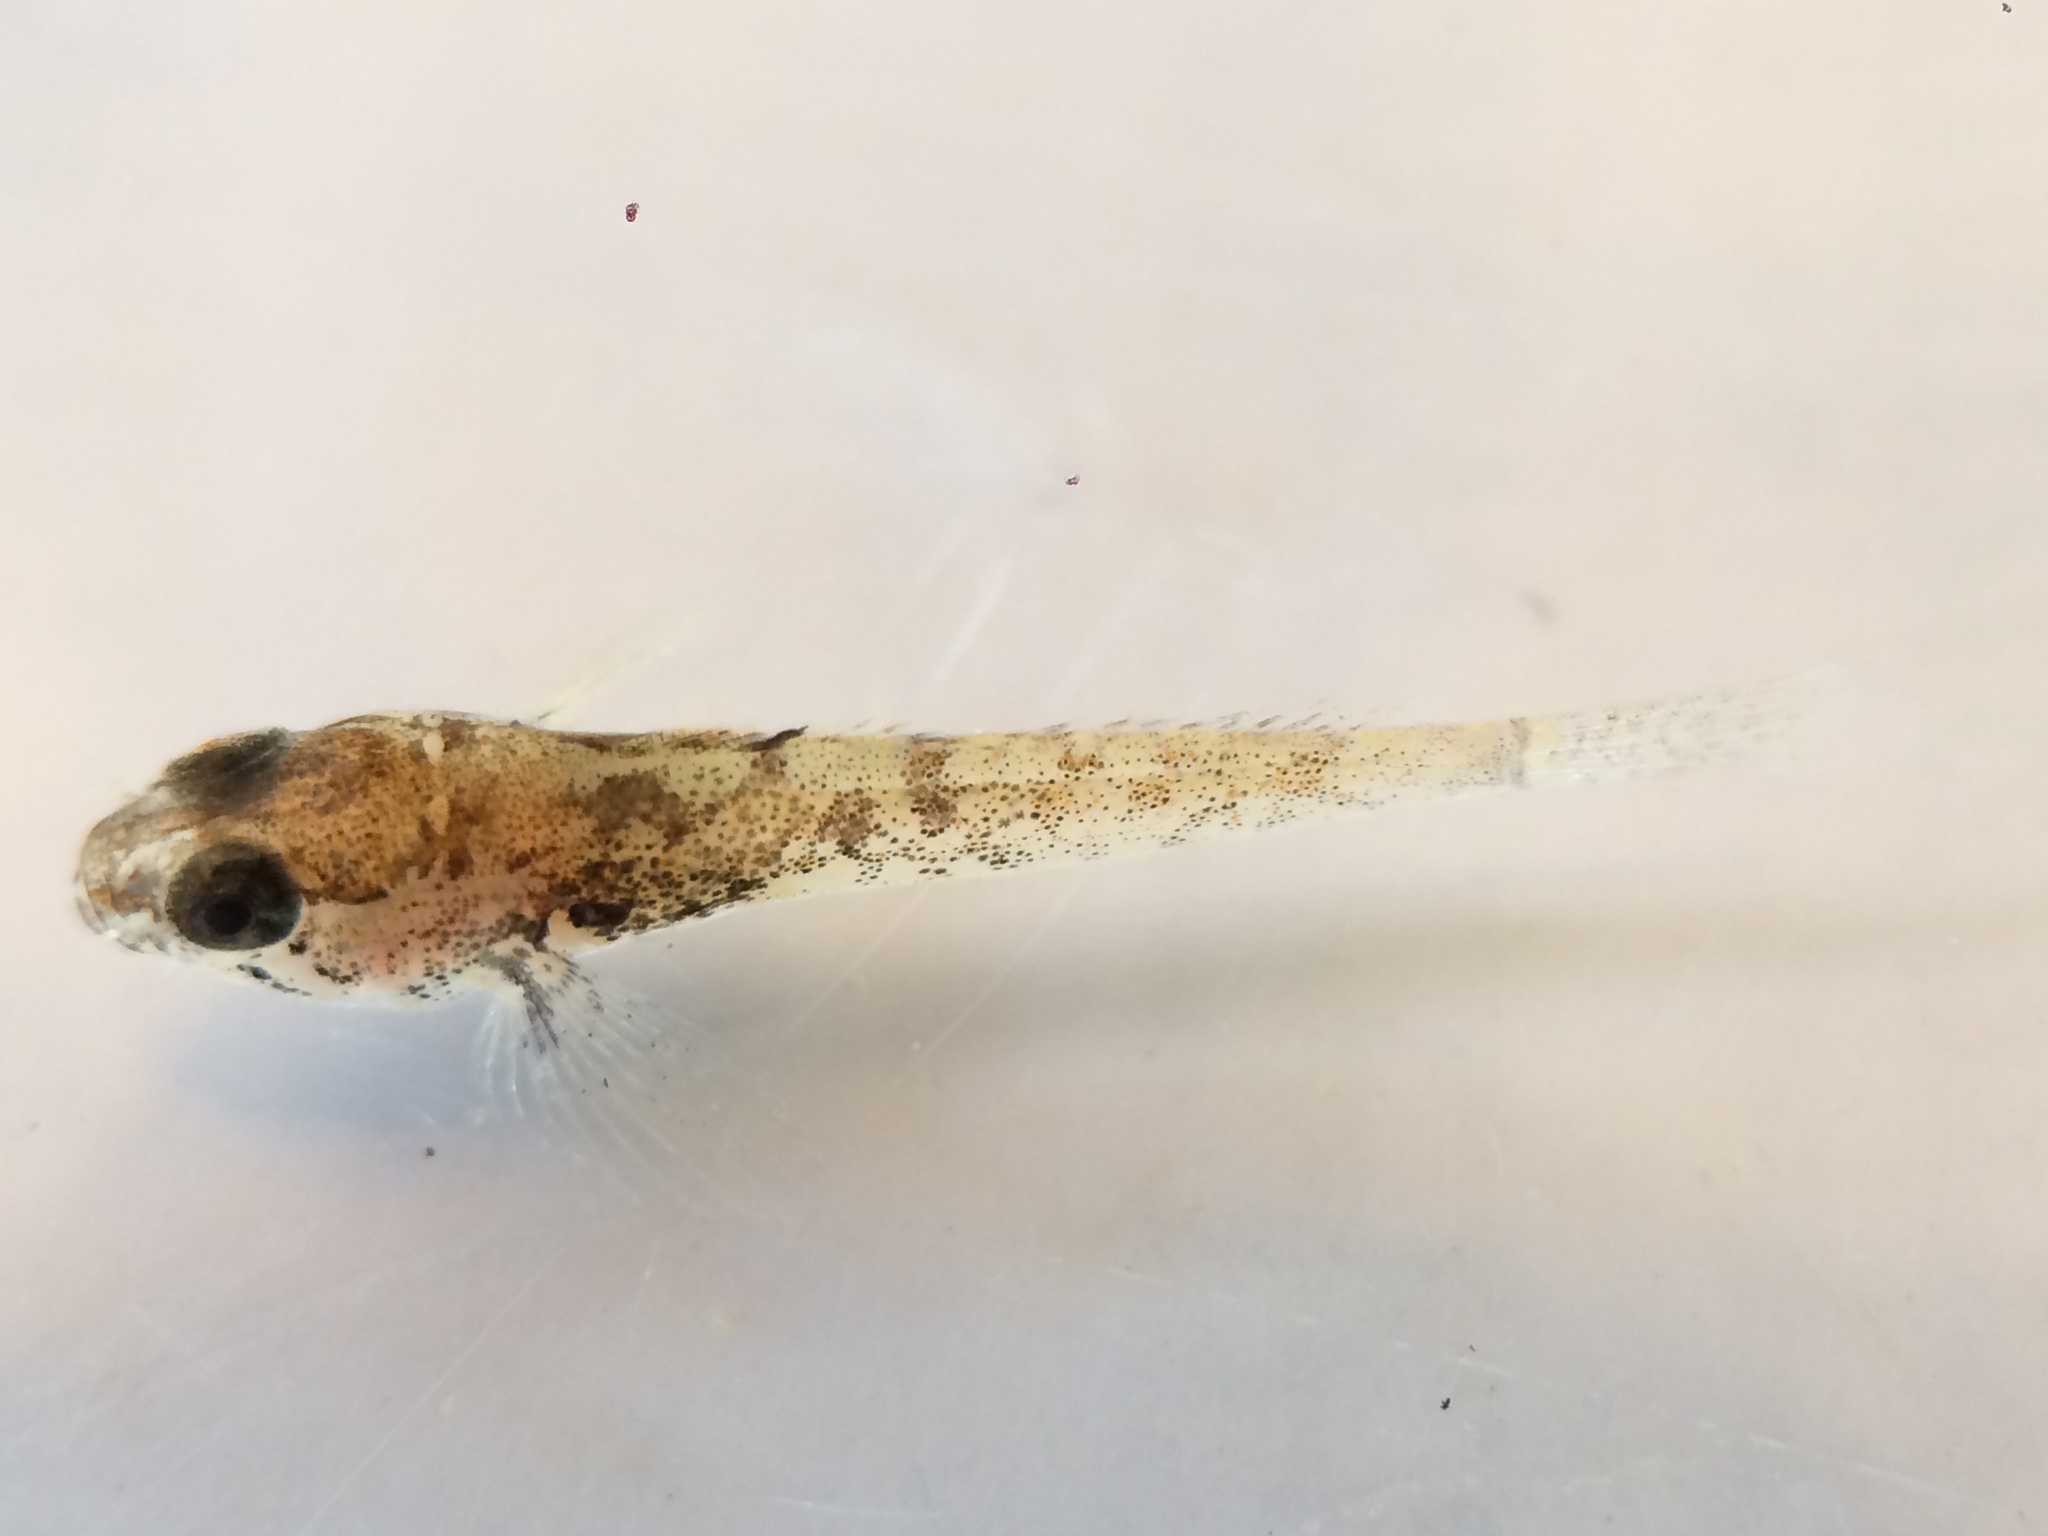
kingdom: Animalia
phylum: Chordata
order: Scorpaeniformes
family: Cottidae
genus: Cottus
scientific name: Cottus perplexus
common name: Reticulate sculpin
